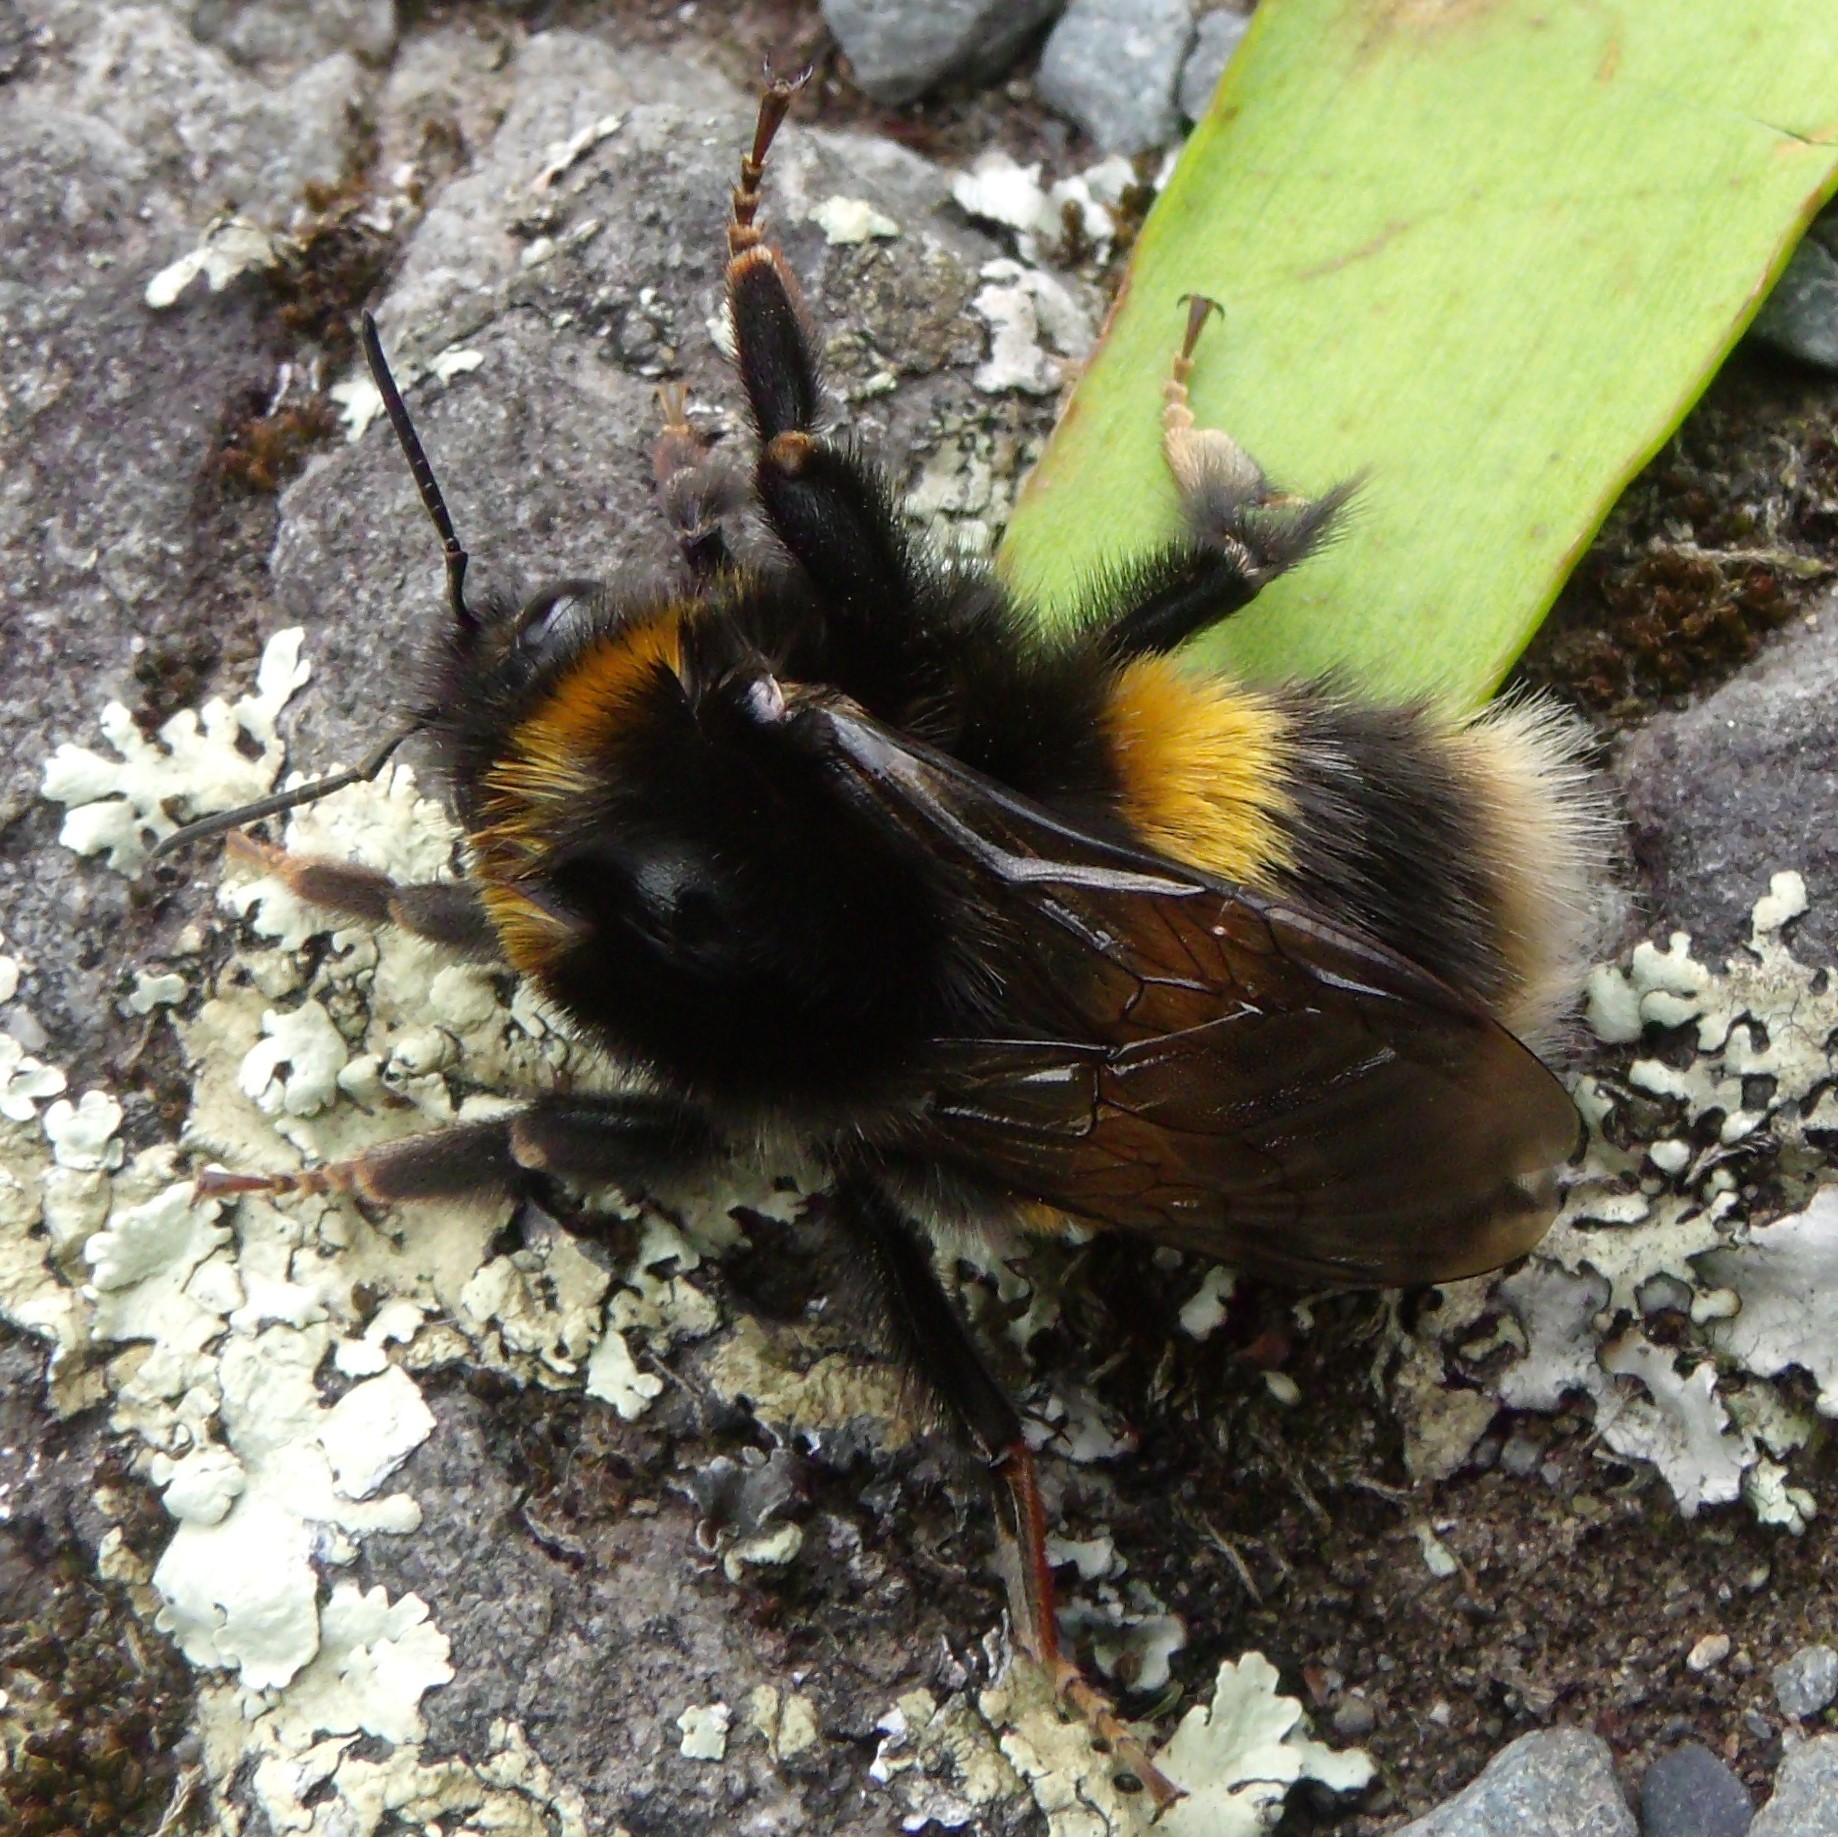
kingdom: Animalia
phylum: Arthropoda
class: Insecta
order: Hymenoptera
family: Apidae
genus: Bombus
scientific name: Bombus terrestris
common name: Buff-tailed bumblebee
